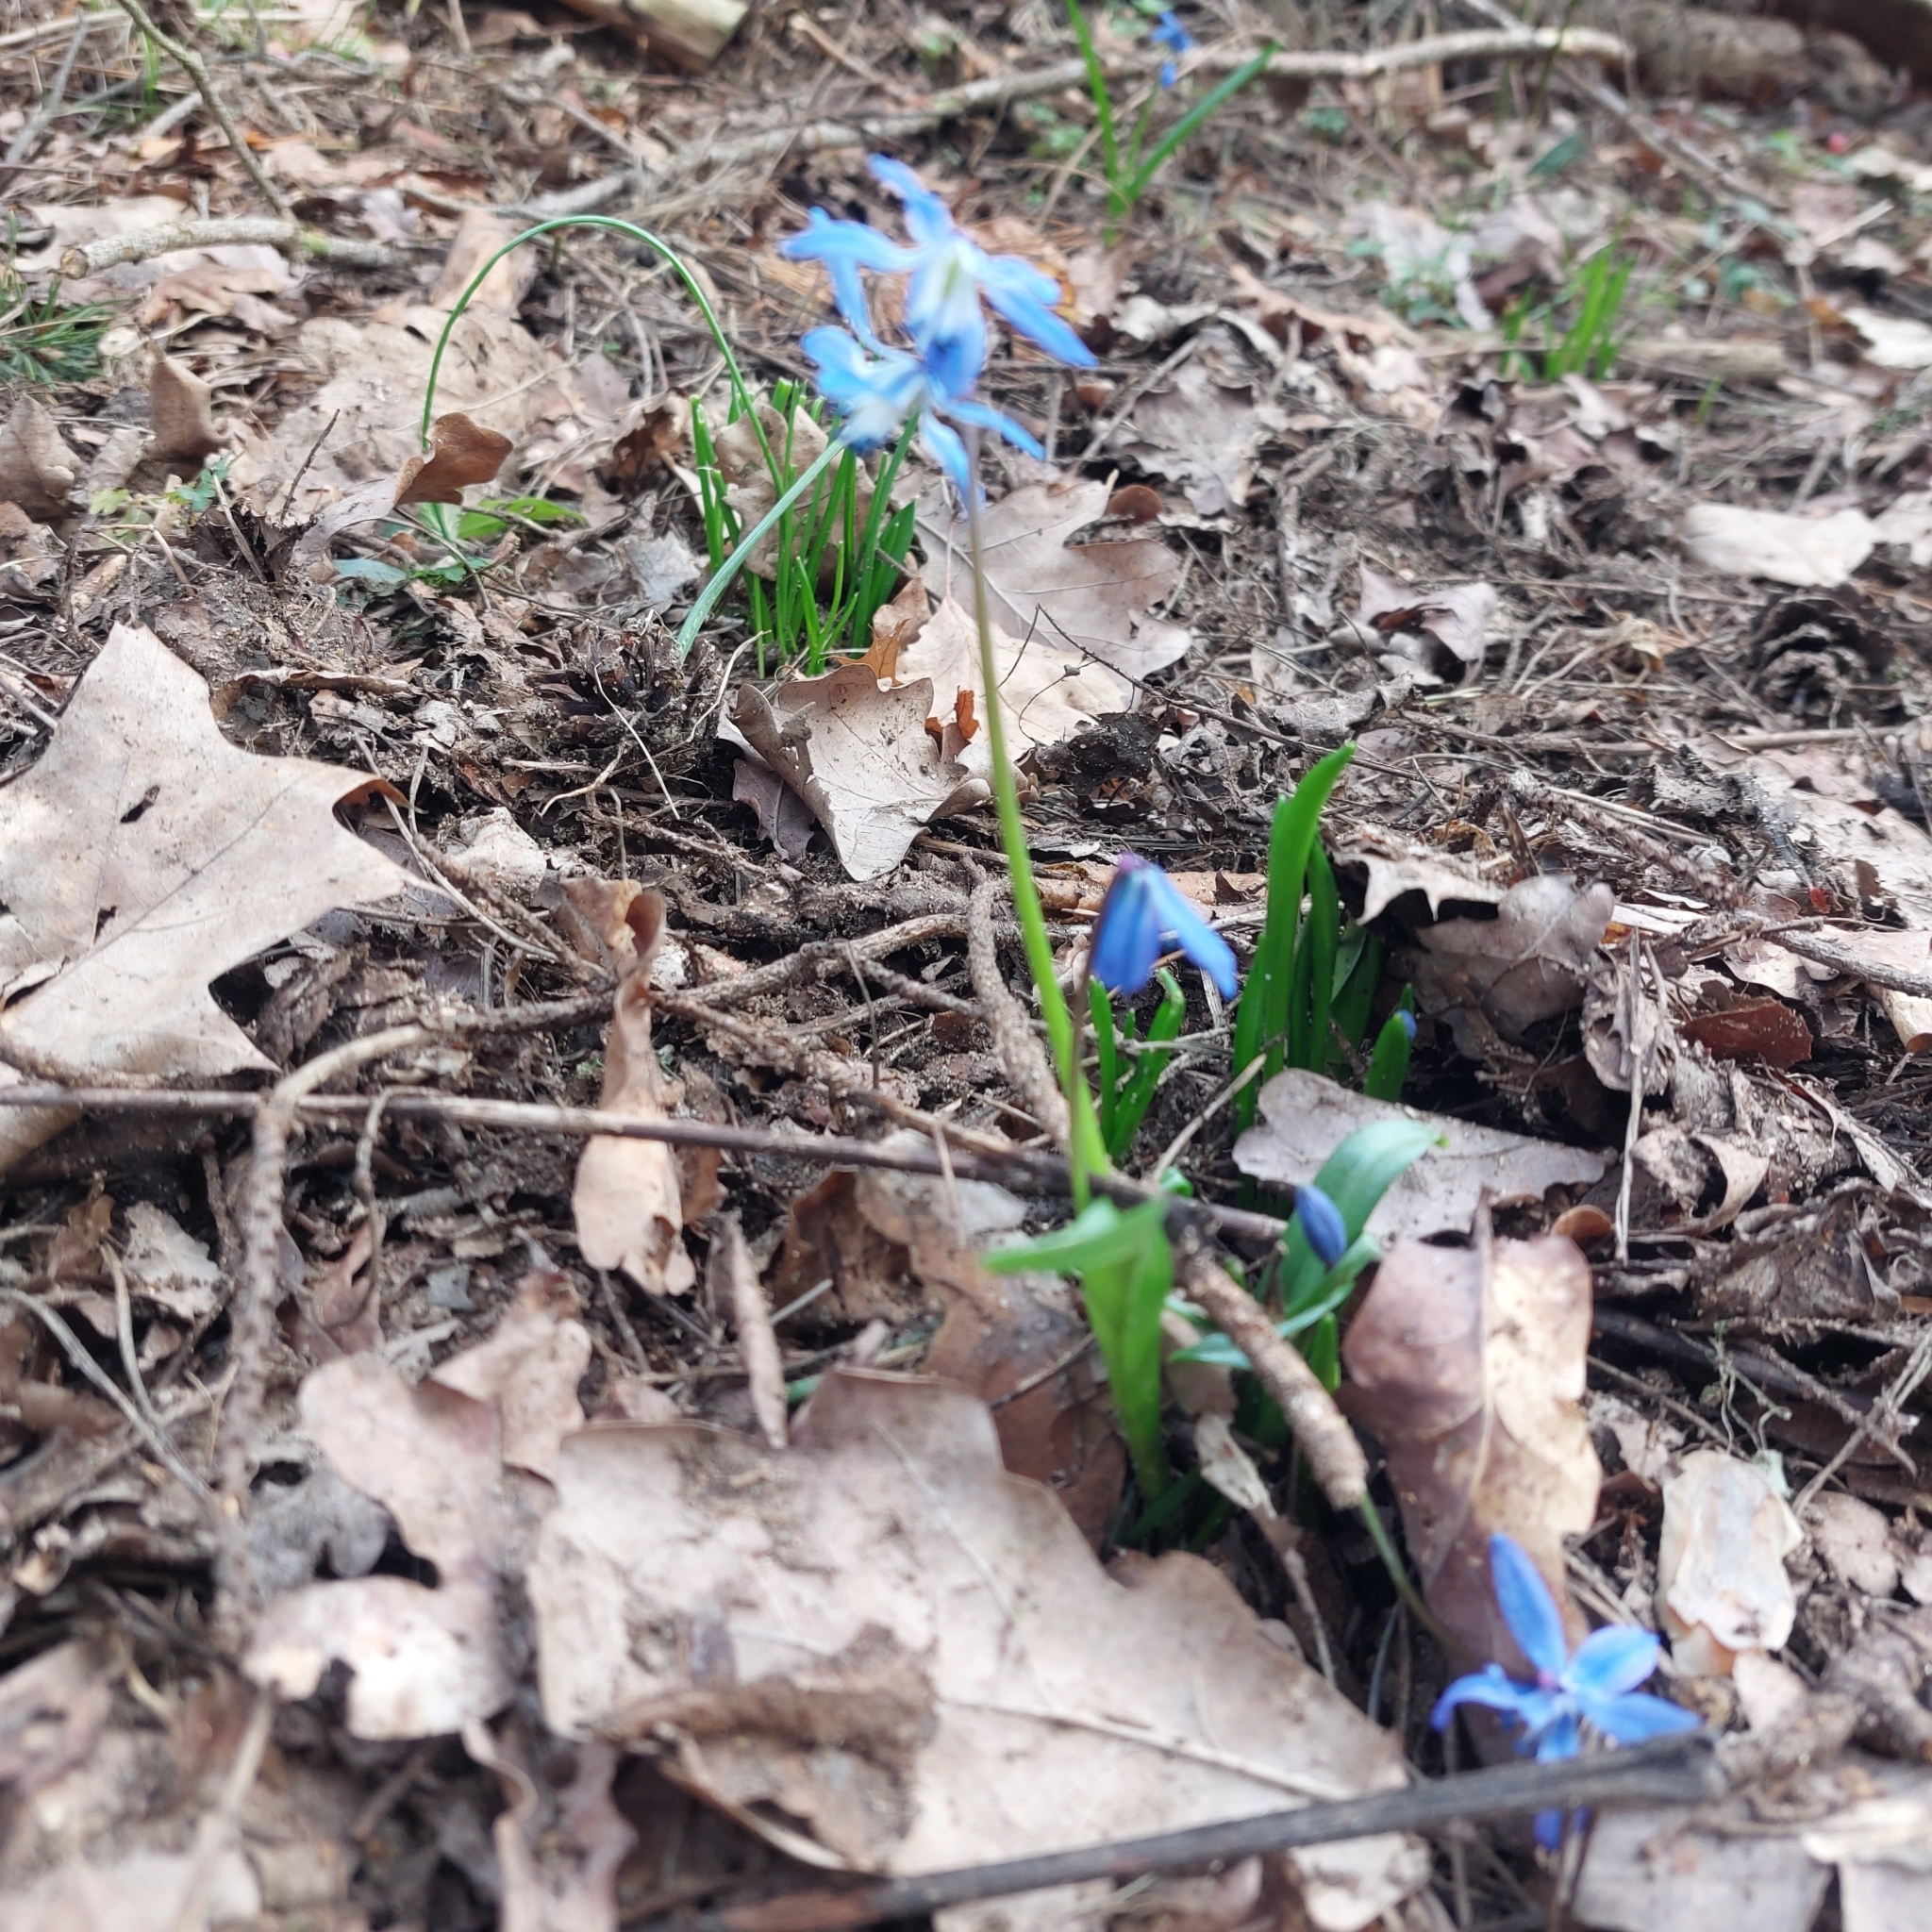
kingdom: Plantae
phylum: Tracheophyta
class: Liliopsida
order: Asparagales
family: Asparagaceae
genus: Scilla
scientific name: Scilla siberica
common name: Siberian squill
